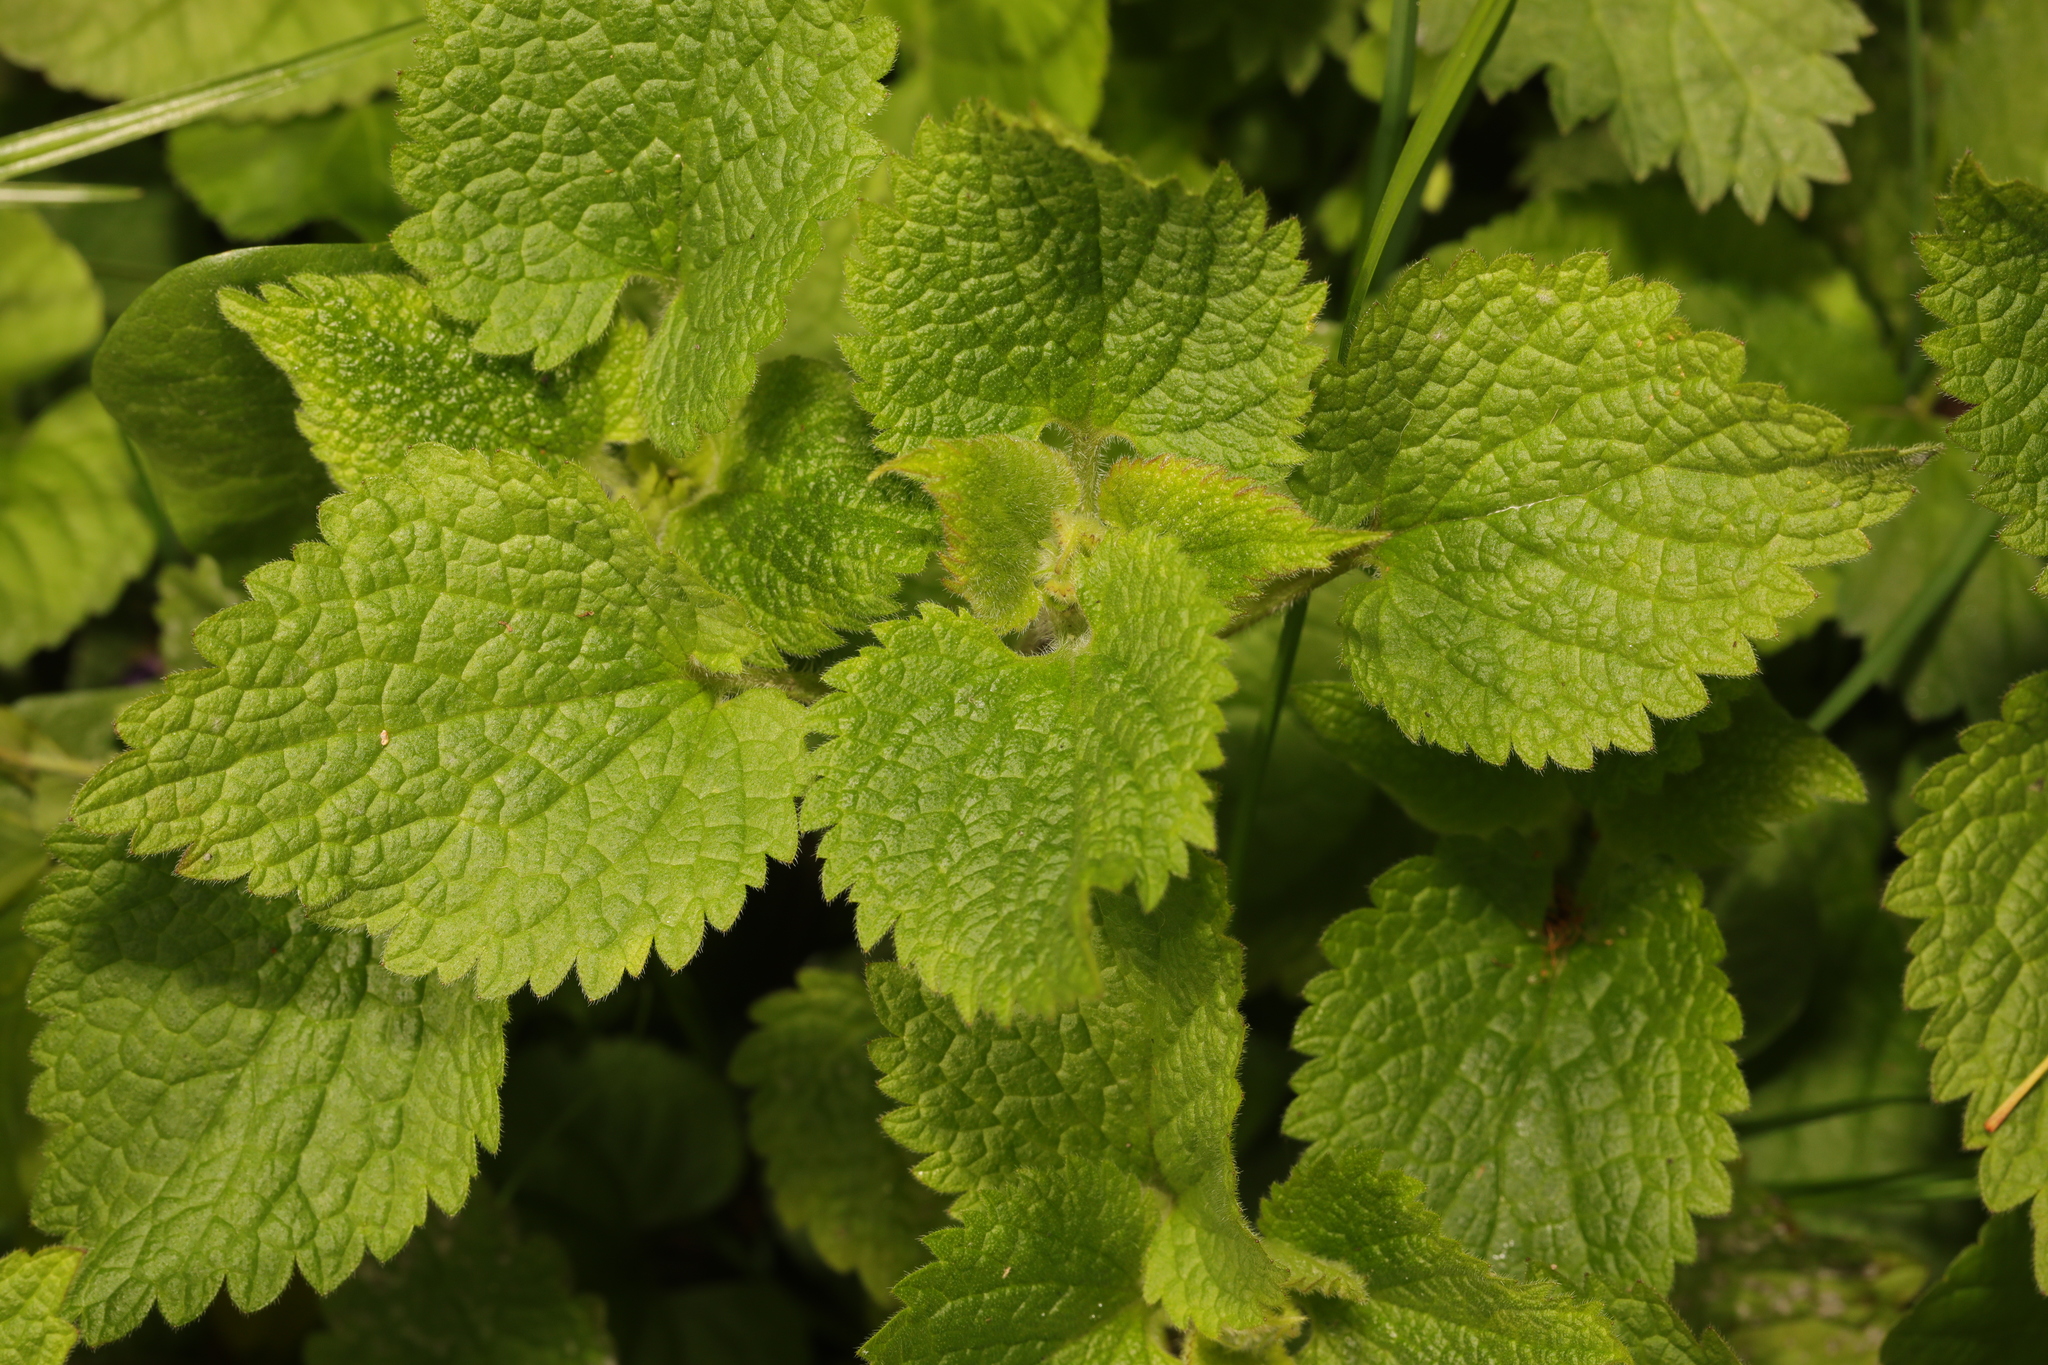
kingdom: Plantae
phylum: Tracheophyta
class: Magnoliopsida
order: Lamiales
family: Lamiaceae
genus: Lamium
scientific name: Lamium album
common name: White dead-nettle
